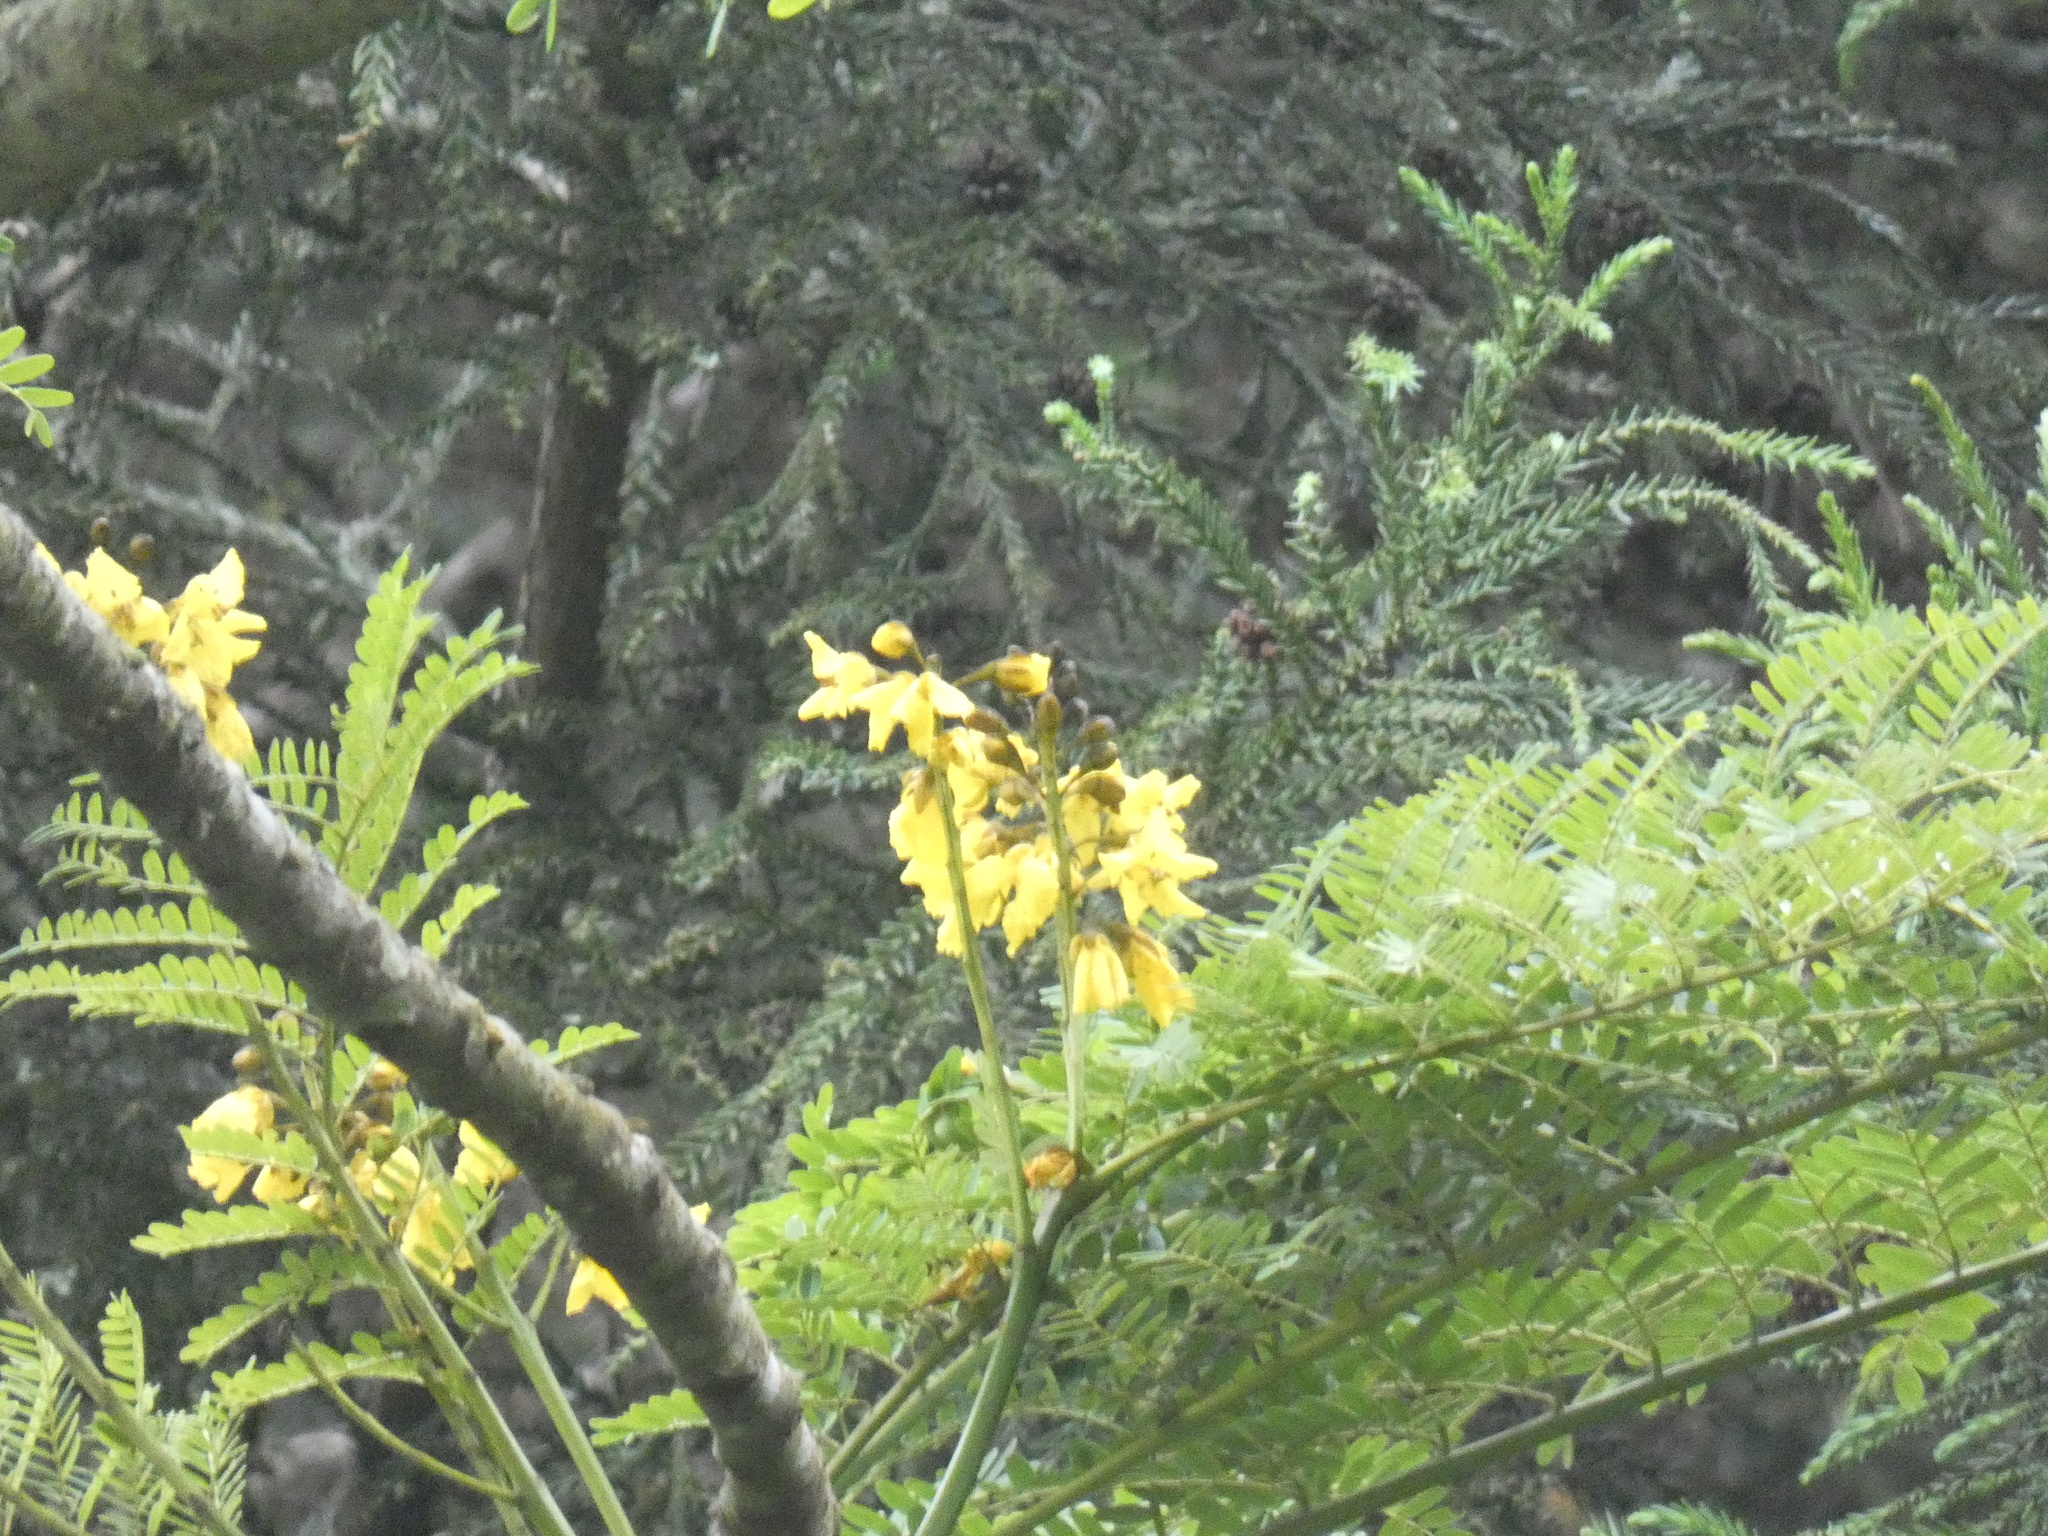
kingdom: Plantae
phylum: Tracheophyta
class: Magnoliopsida
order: Fabales
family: Fabaceae
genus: Schizolobium
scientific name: Schizolobium parahyba
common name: Brazilian firetree
